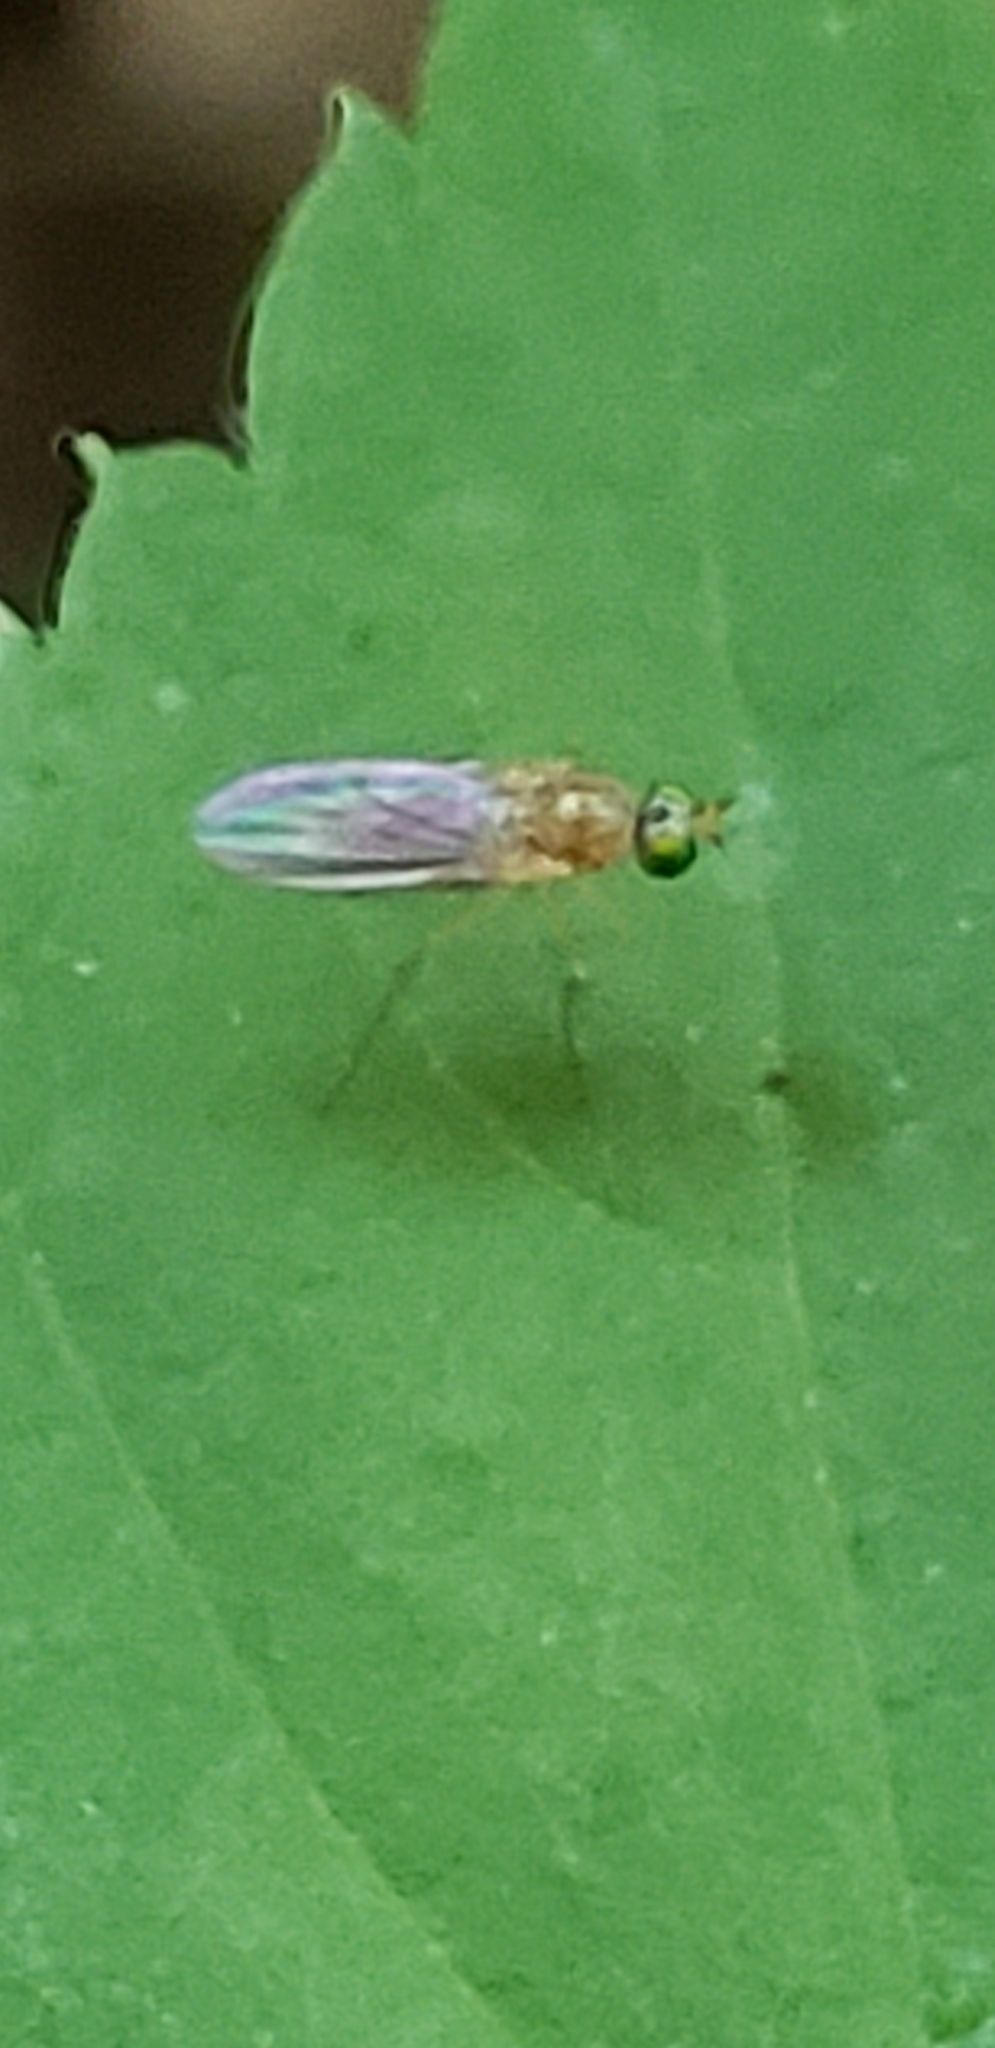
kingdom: Animalia
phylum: Arthropoda
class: Insecta
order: Diptera
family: Dolichopodidae
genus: Gymnopternus
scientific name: Gymnopternus flavus
